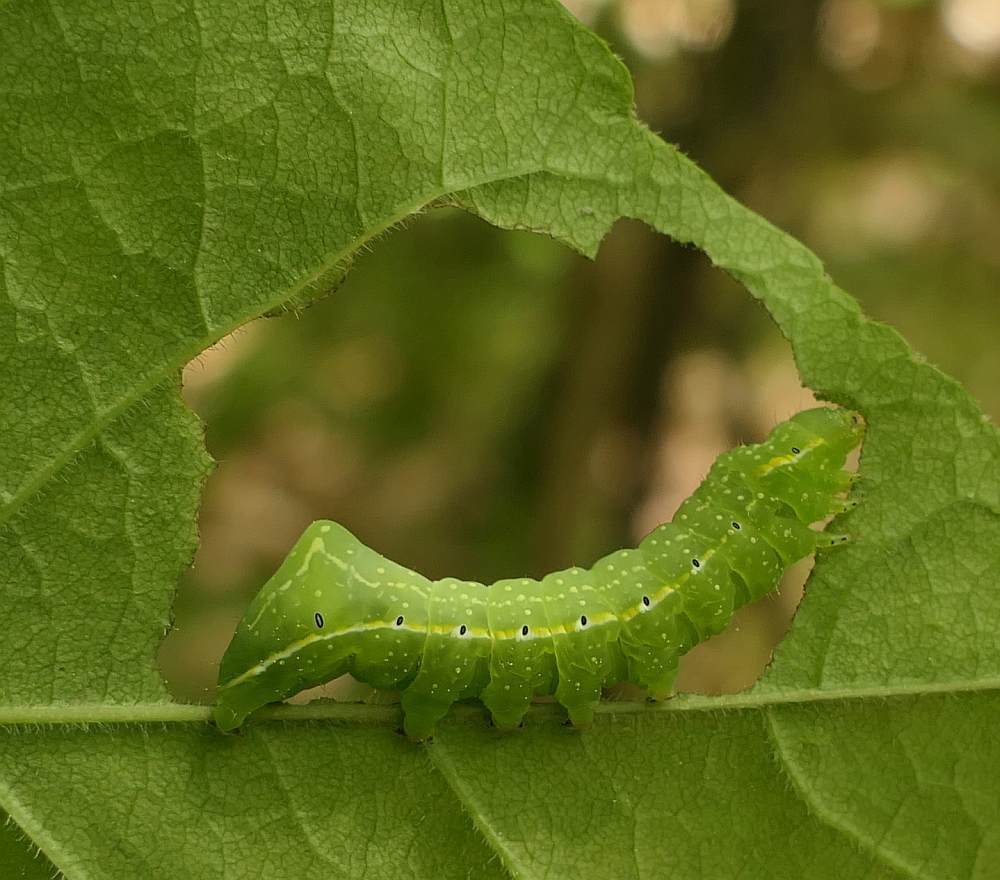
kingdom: Animalia
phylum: Arthropoda
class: Insecta
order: Lepidoptera
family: Noctuidae
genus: Amphipyra
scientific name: Amphipyra pyramidoides
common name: American copper underwing
